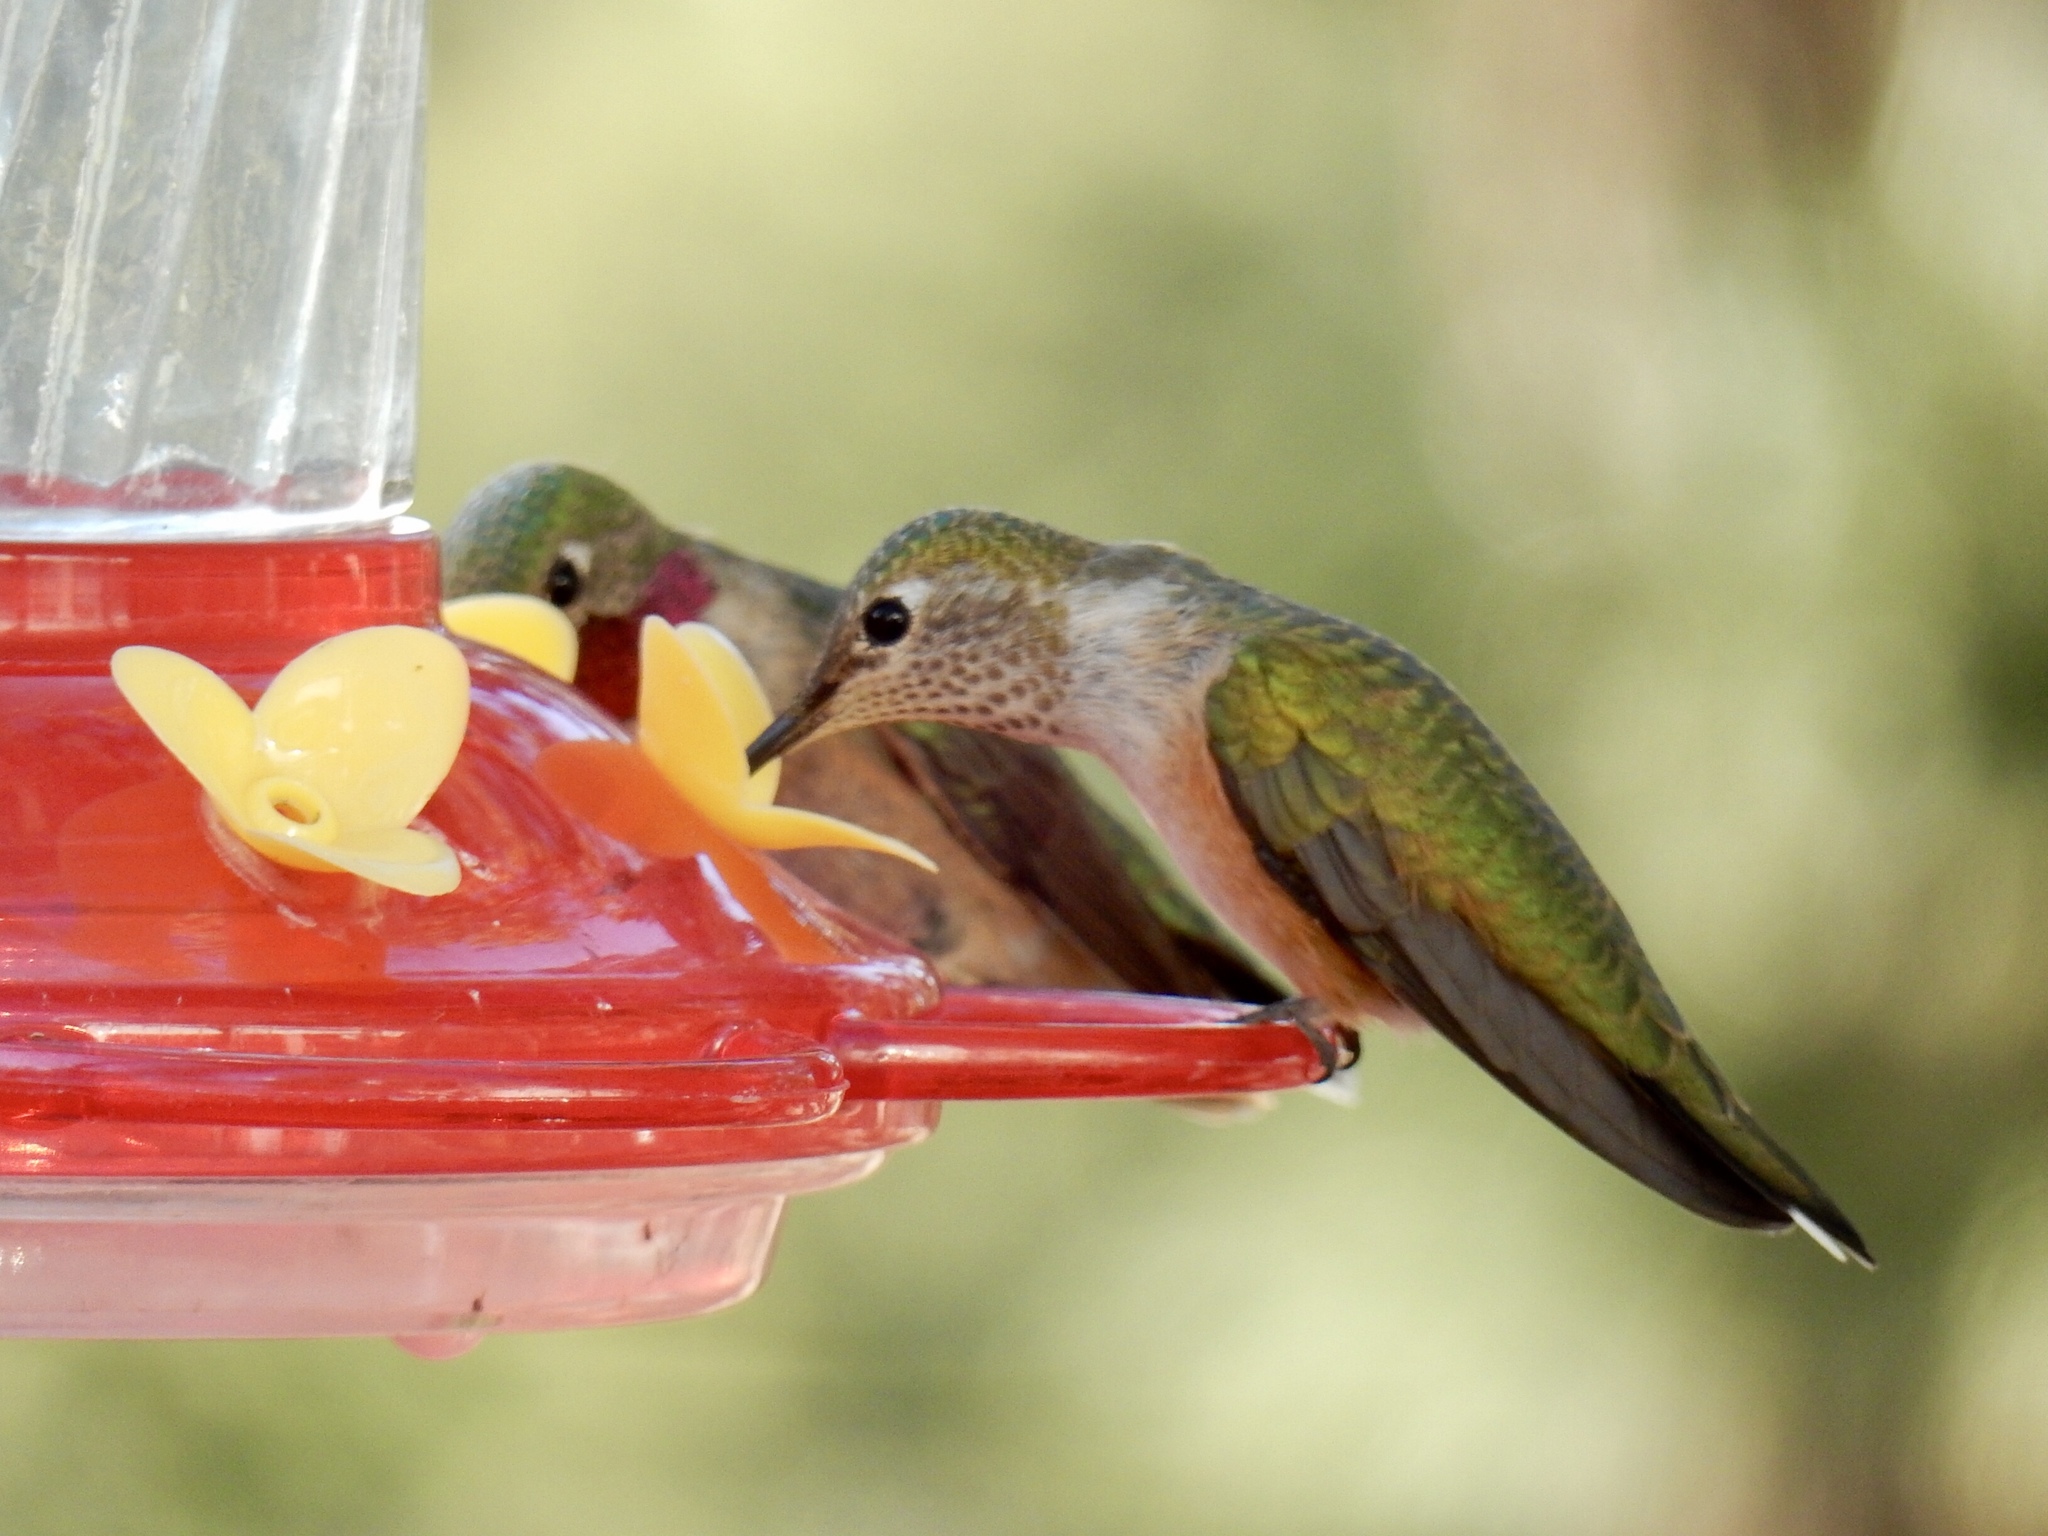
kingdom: Animalia
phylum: Chordata
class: Aves
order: Apodiformes
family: Trochilidae
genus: Selasphorus
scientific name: Selasphorus platycercus
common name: Broad-tailed hummingbird
